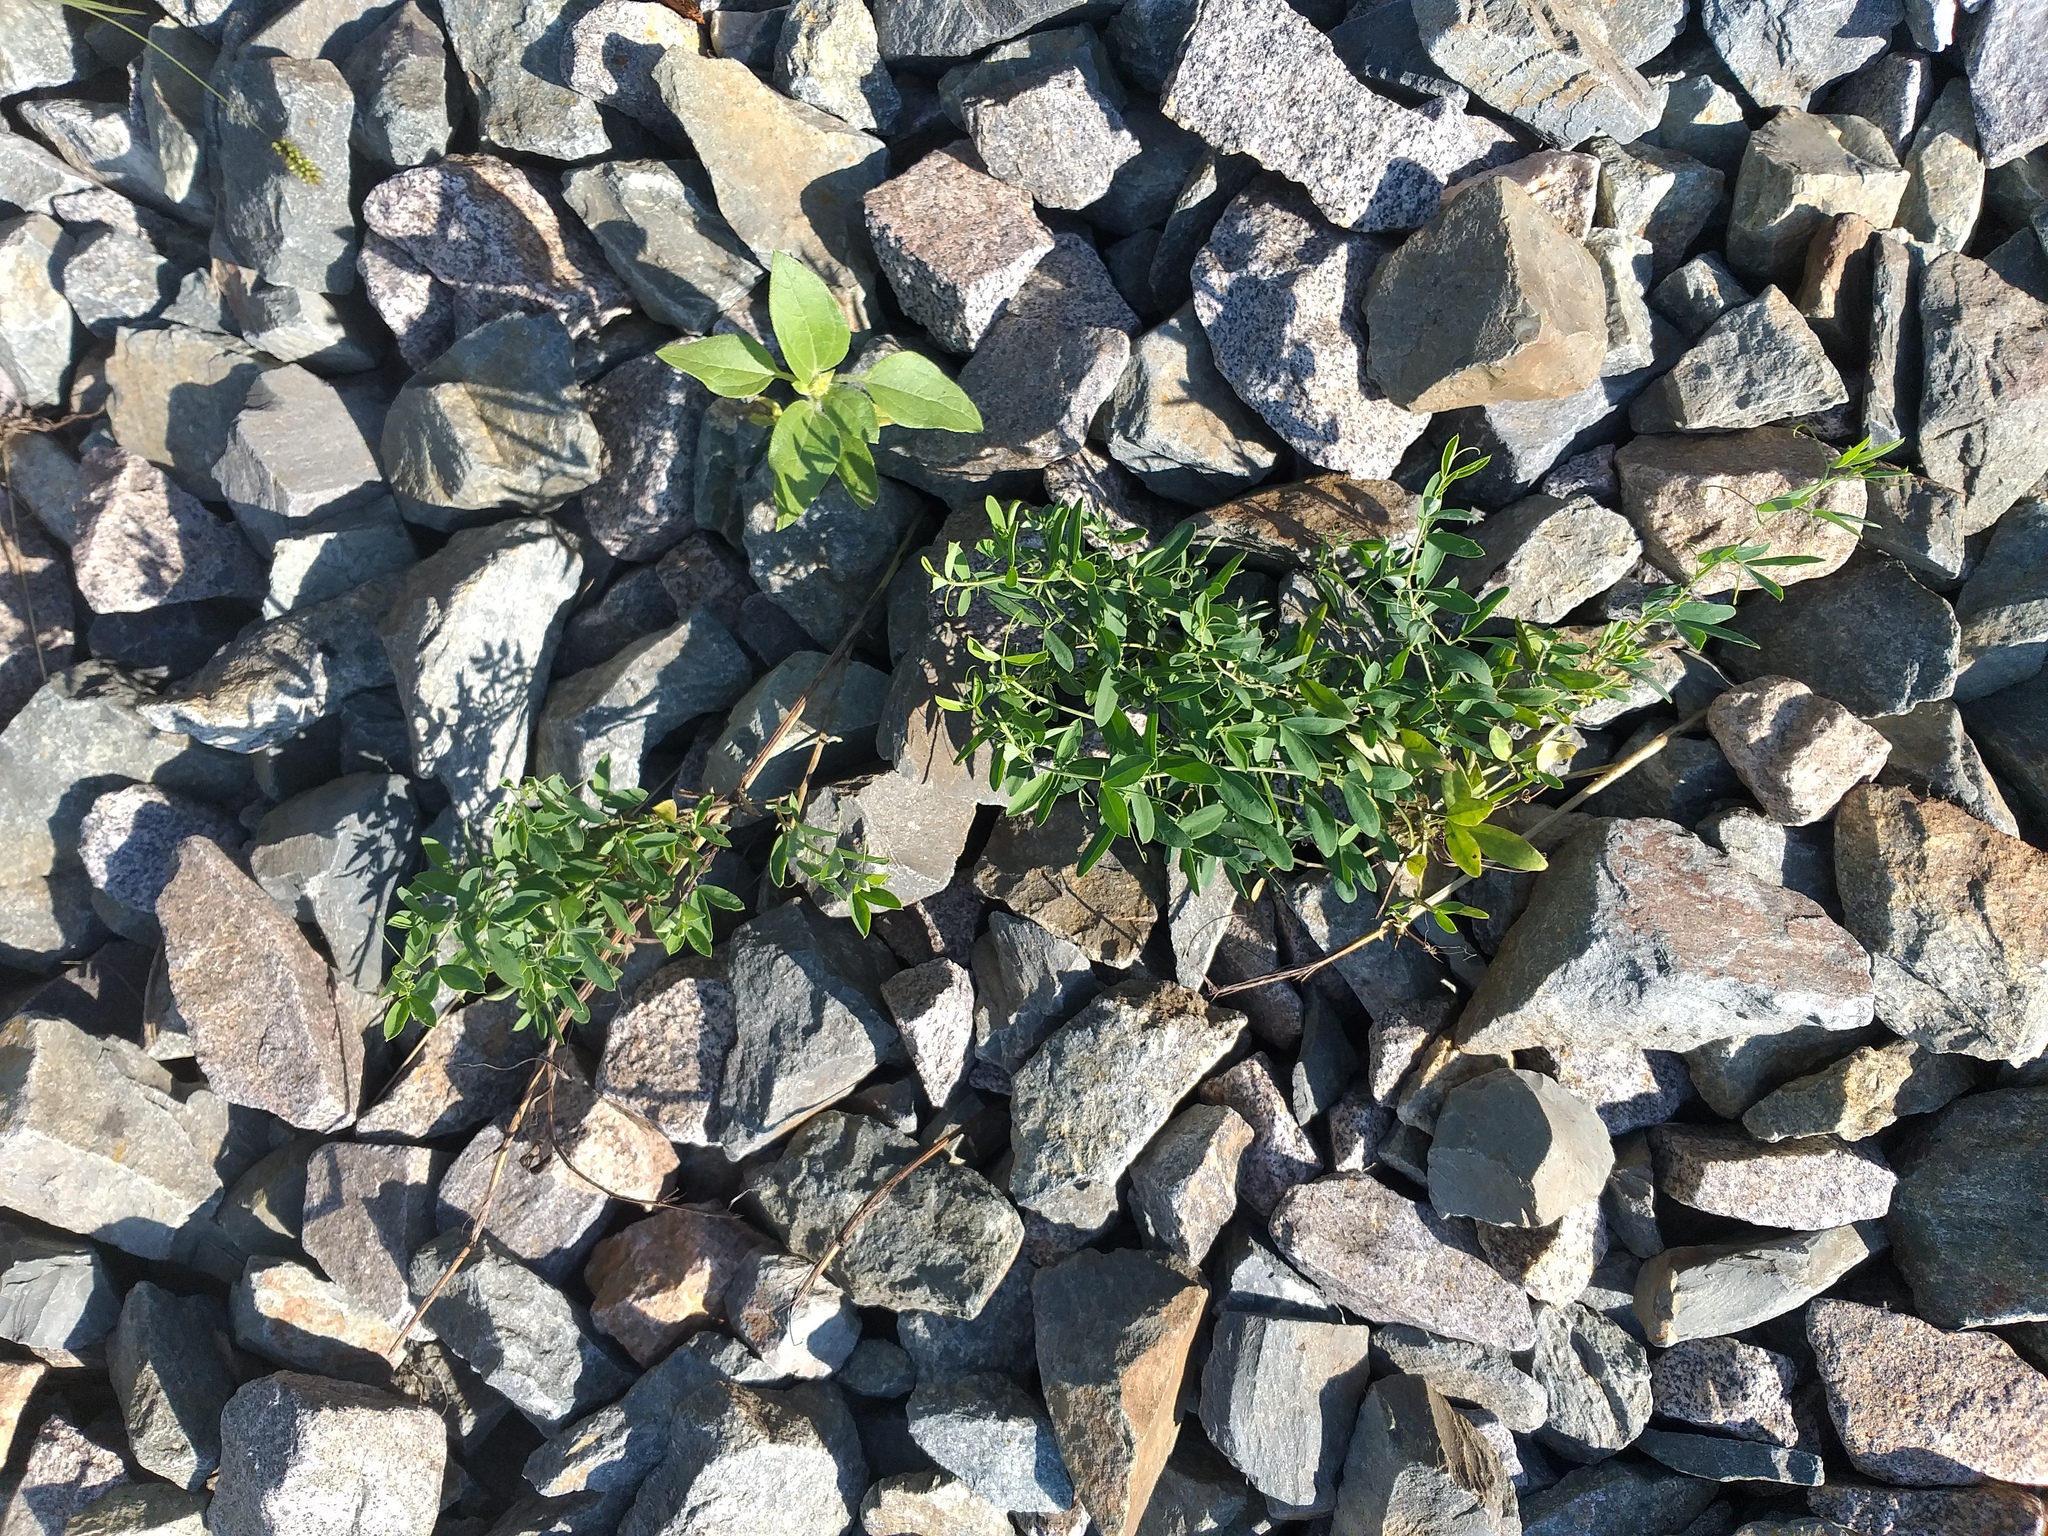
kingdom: Plantae
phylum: Tracheophyta
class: Magnoliopsida
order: Fabales
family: Fabaceae
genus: Lathyrus
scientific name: Lathyrus tuberosus
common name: Tuberous pea
